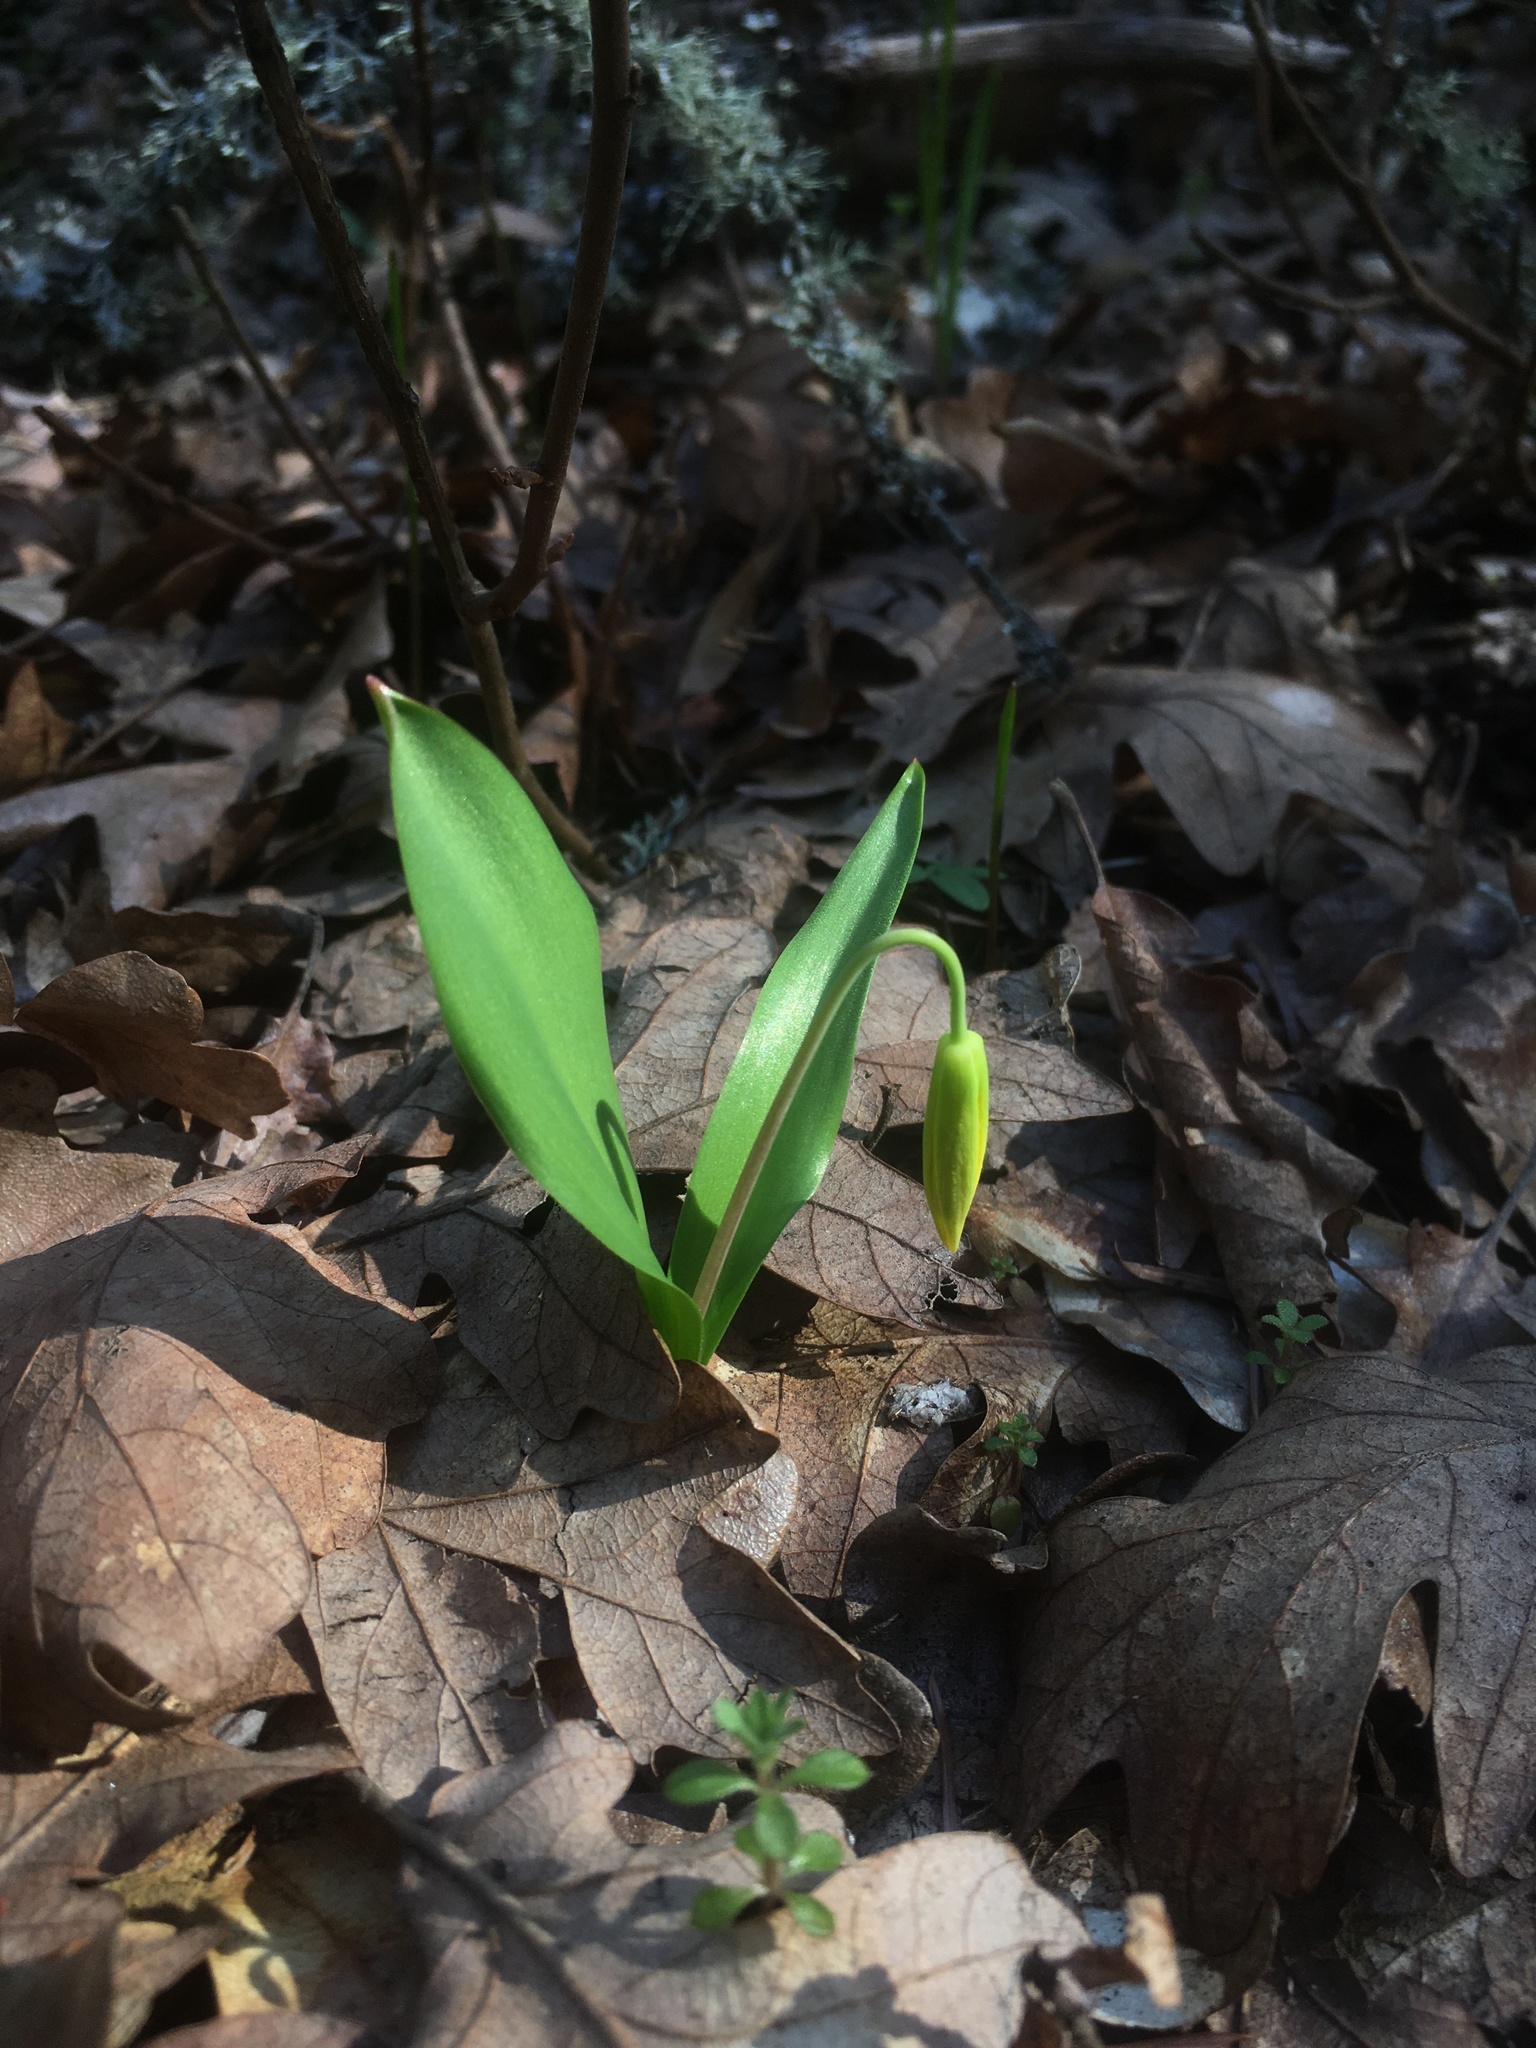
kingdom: Plantae
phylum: Tracheophyta
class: Liliopsida
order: Liliales
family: Liliaceae
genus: Erythronium
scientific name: Erythronium grandiflorum
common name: Avalanche-lily
